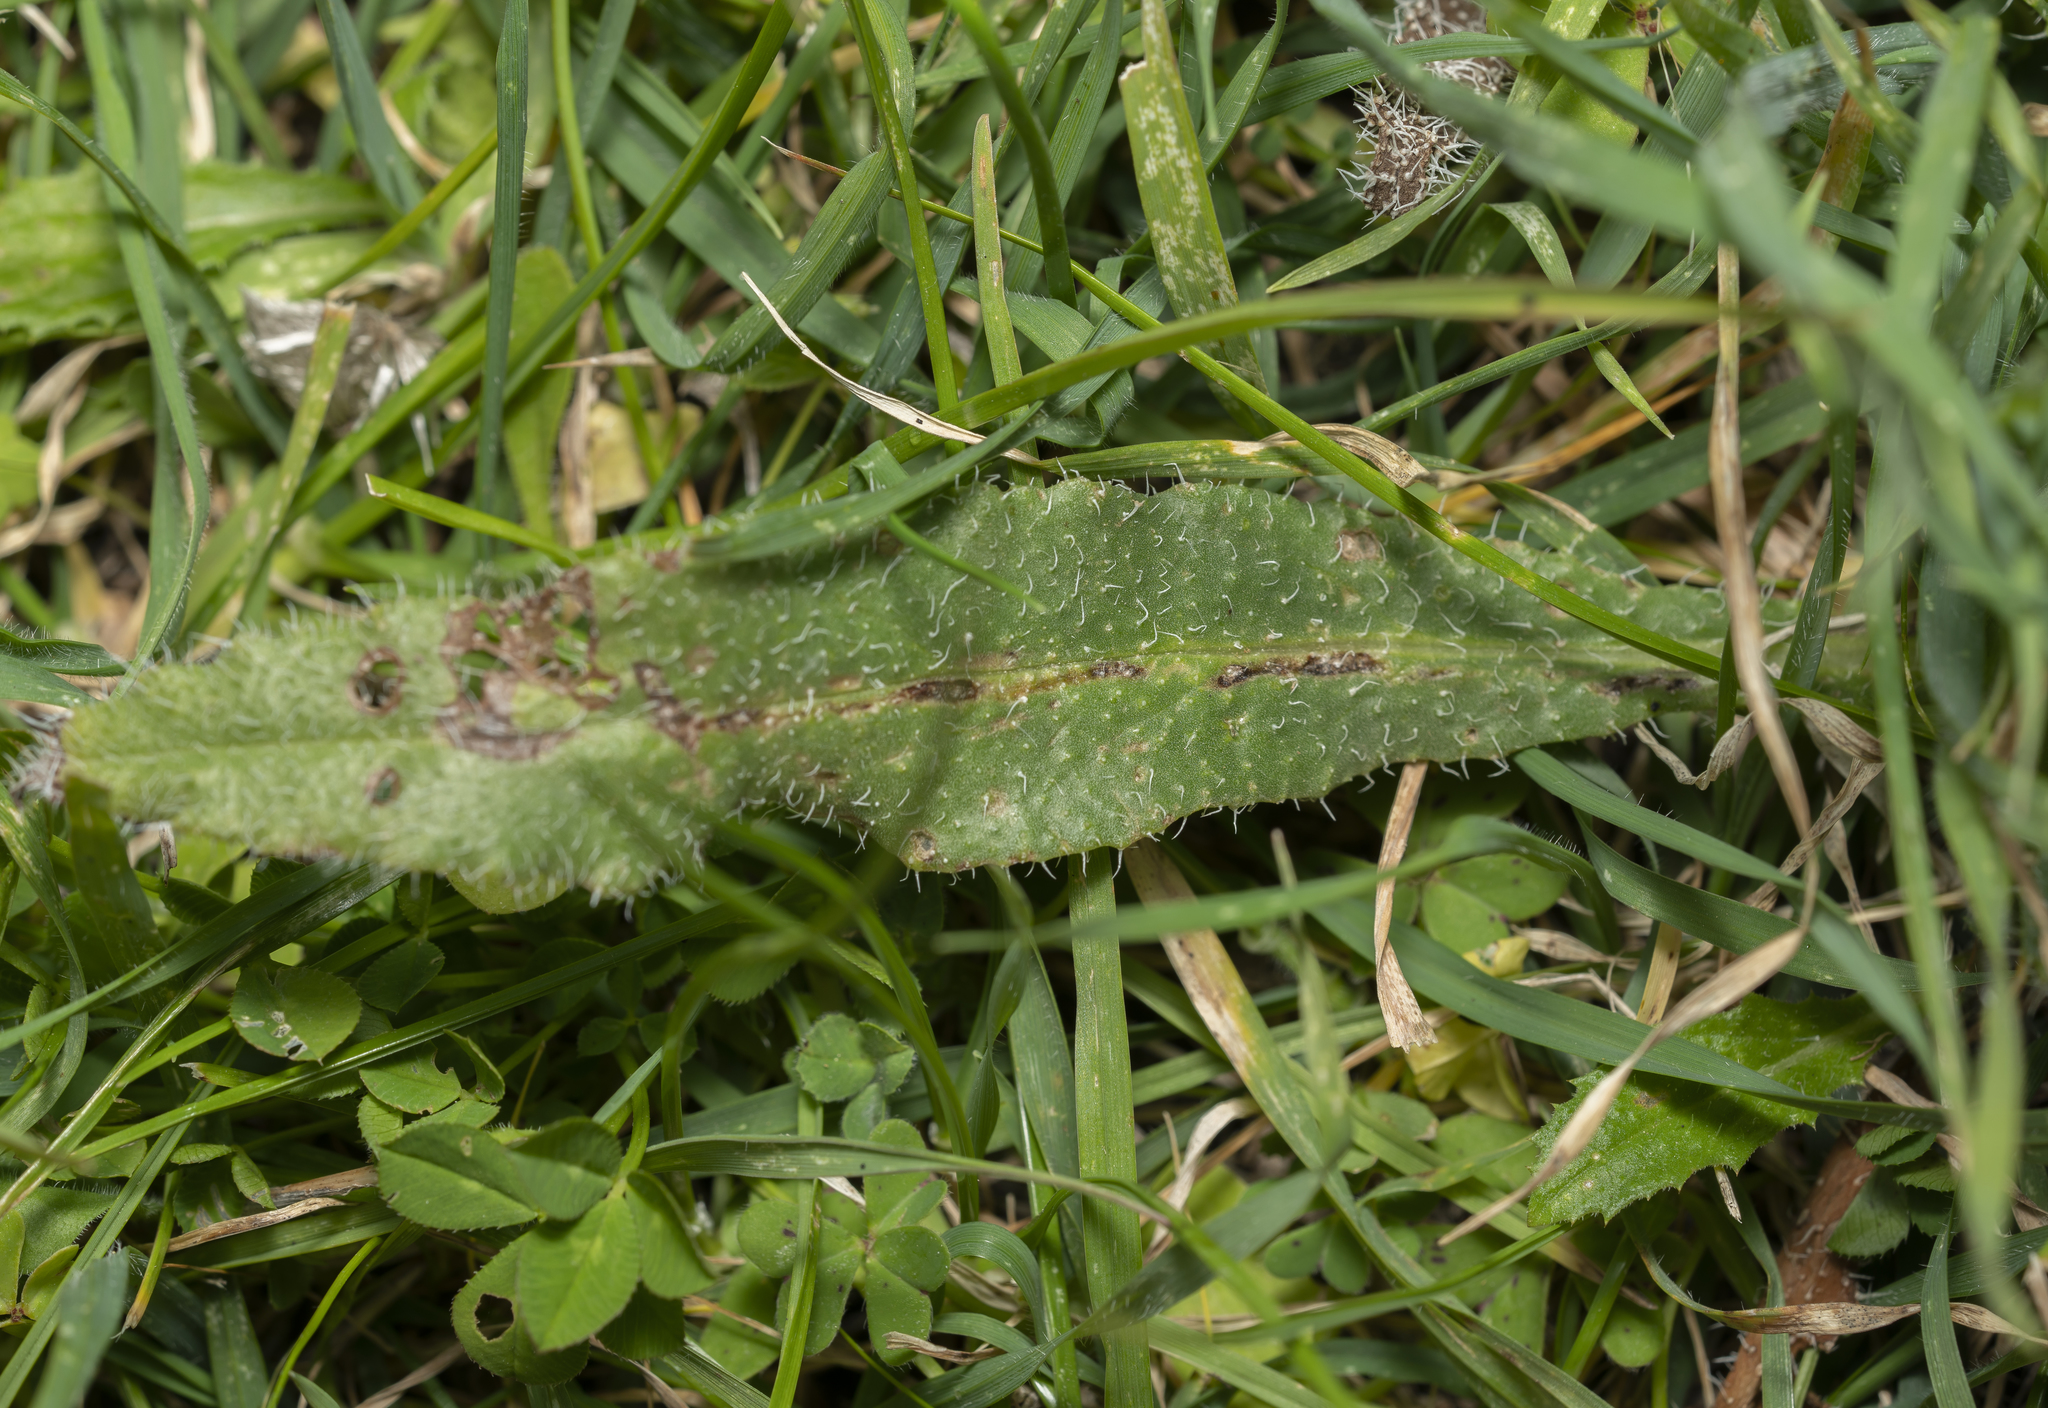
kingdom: Plantae
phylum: Tracheophyta
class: Magnoliopsida
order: Boraginales
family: Boraginaceae
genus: Anchusa
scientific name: Anchusa azurea
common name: Garden anchusa
